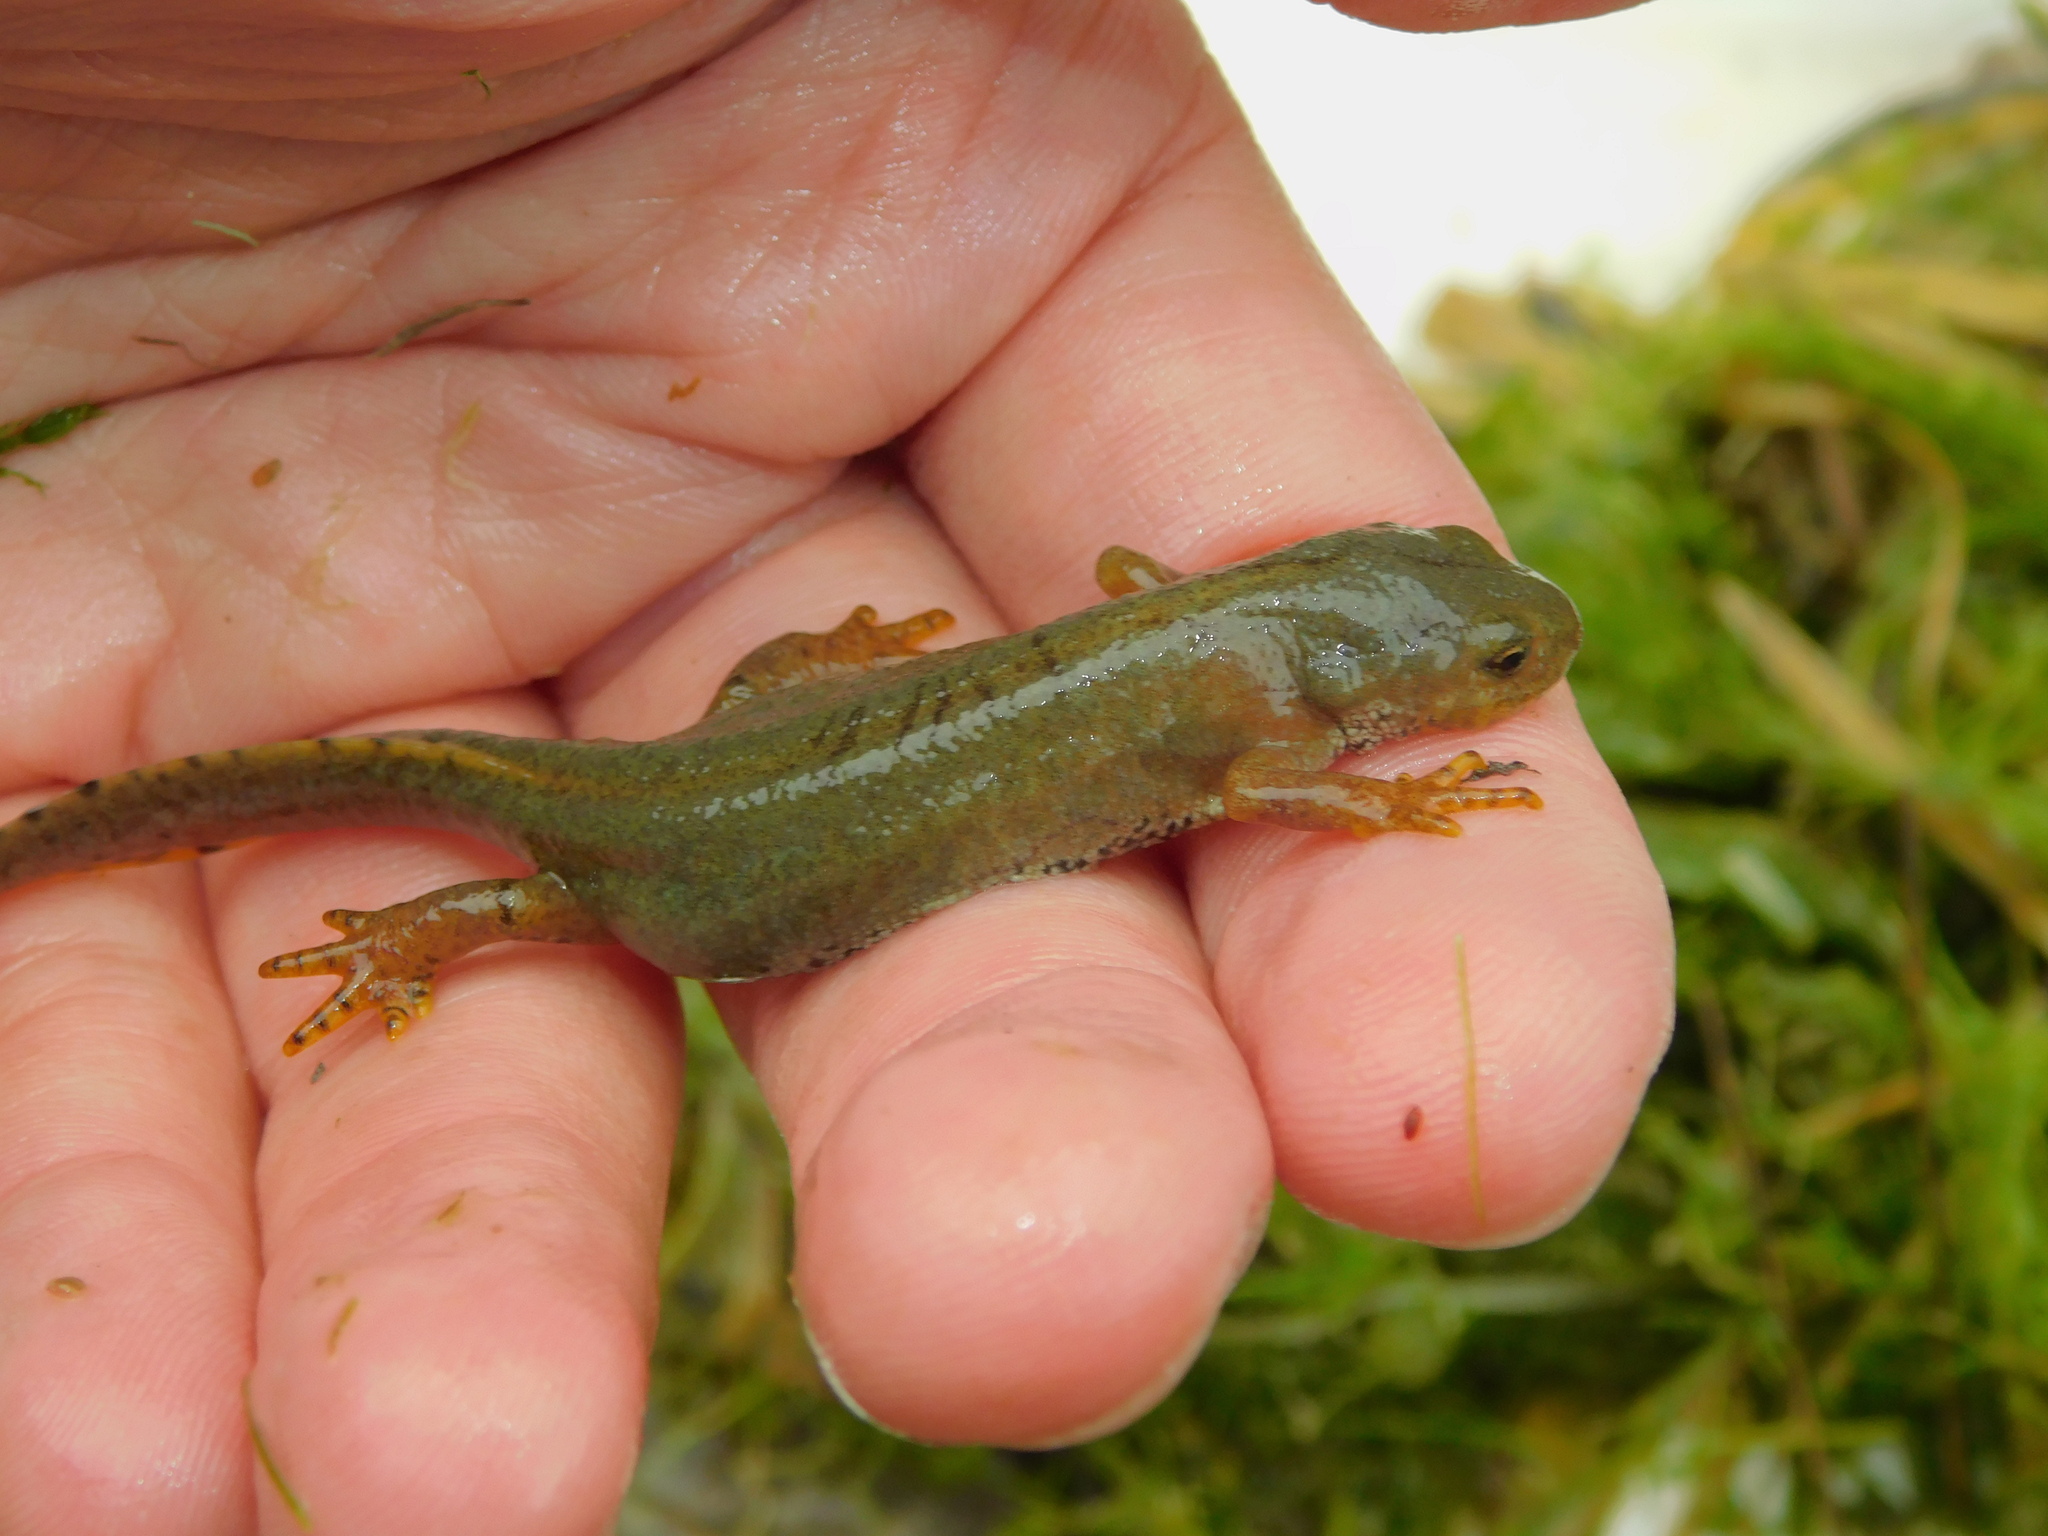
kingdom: Animalia
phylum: Chordata
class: Amphibia
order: Caudata
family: Salamandridae
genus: Ichthyosaura
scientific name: Ichthyosaura alpestris
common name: Alpine newt
